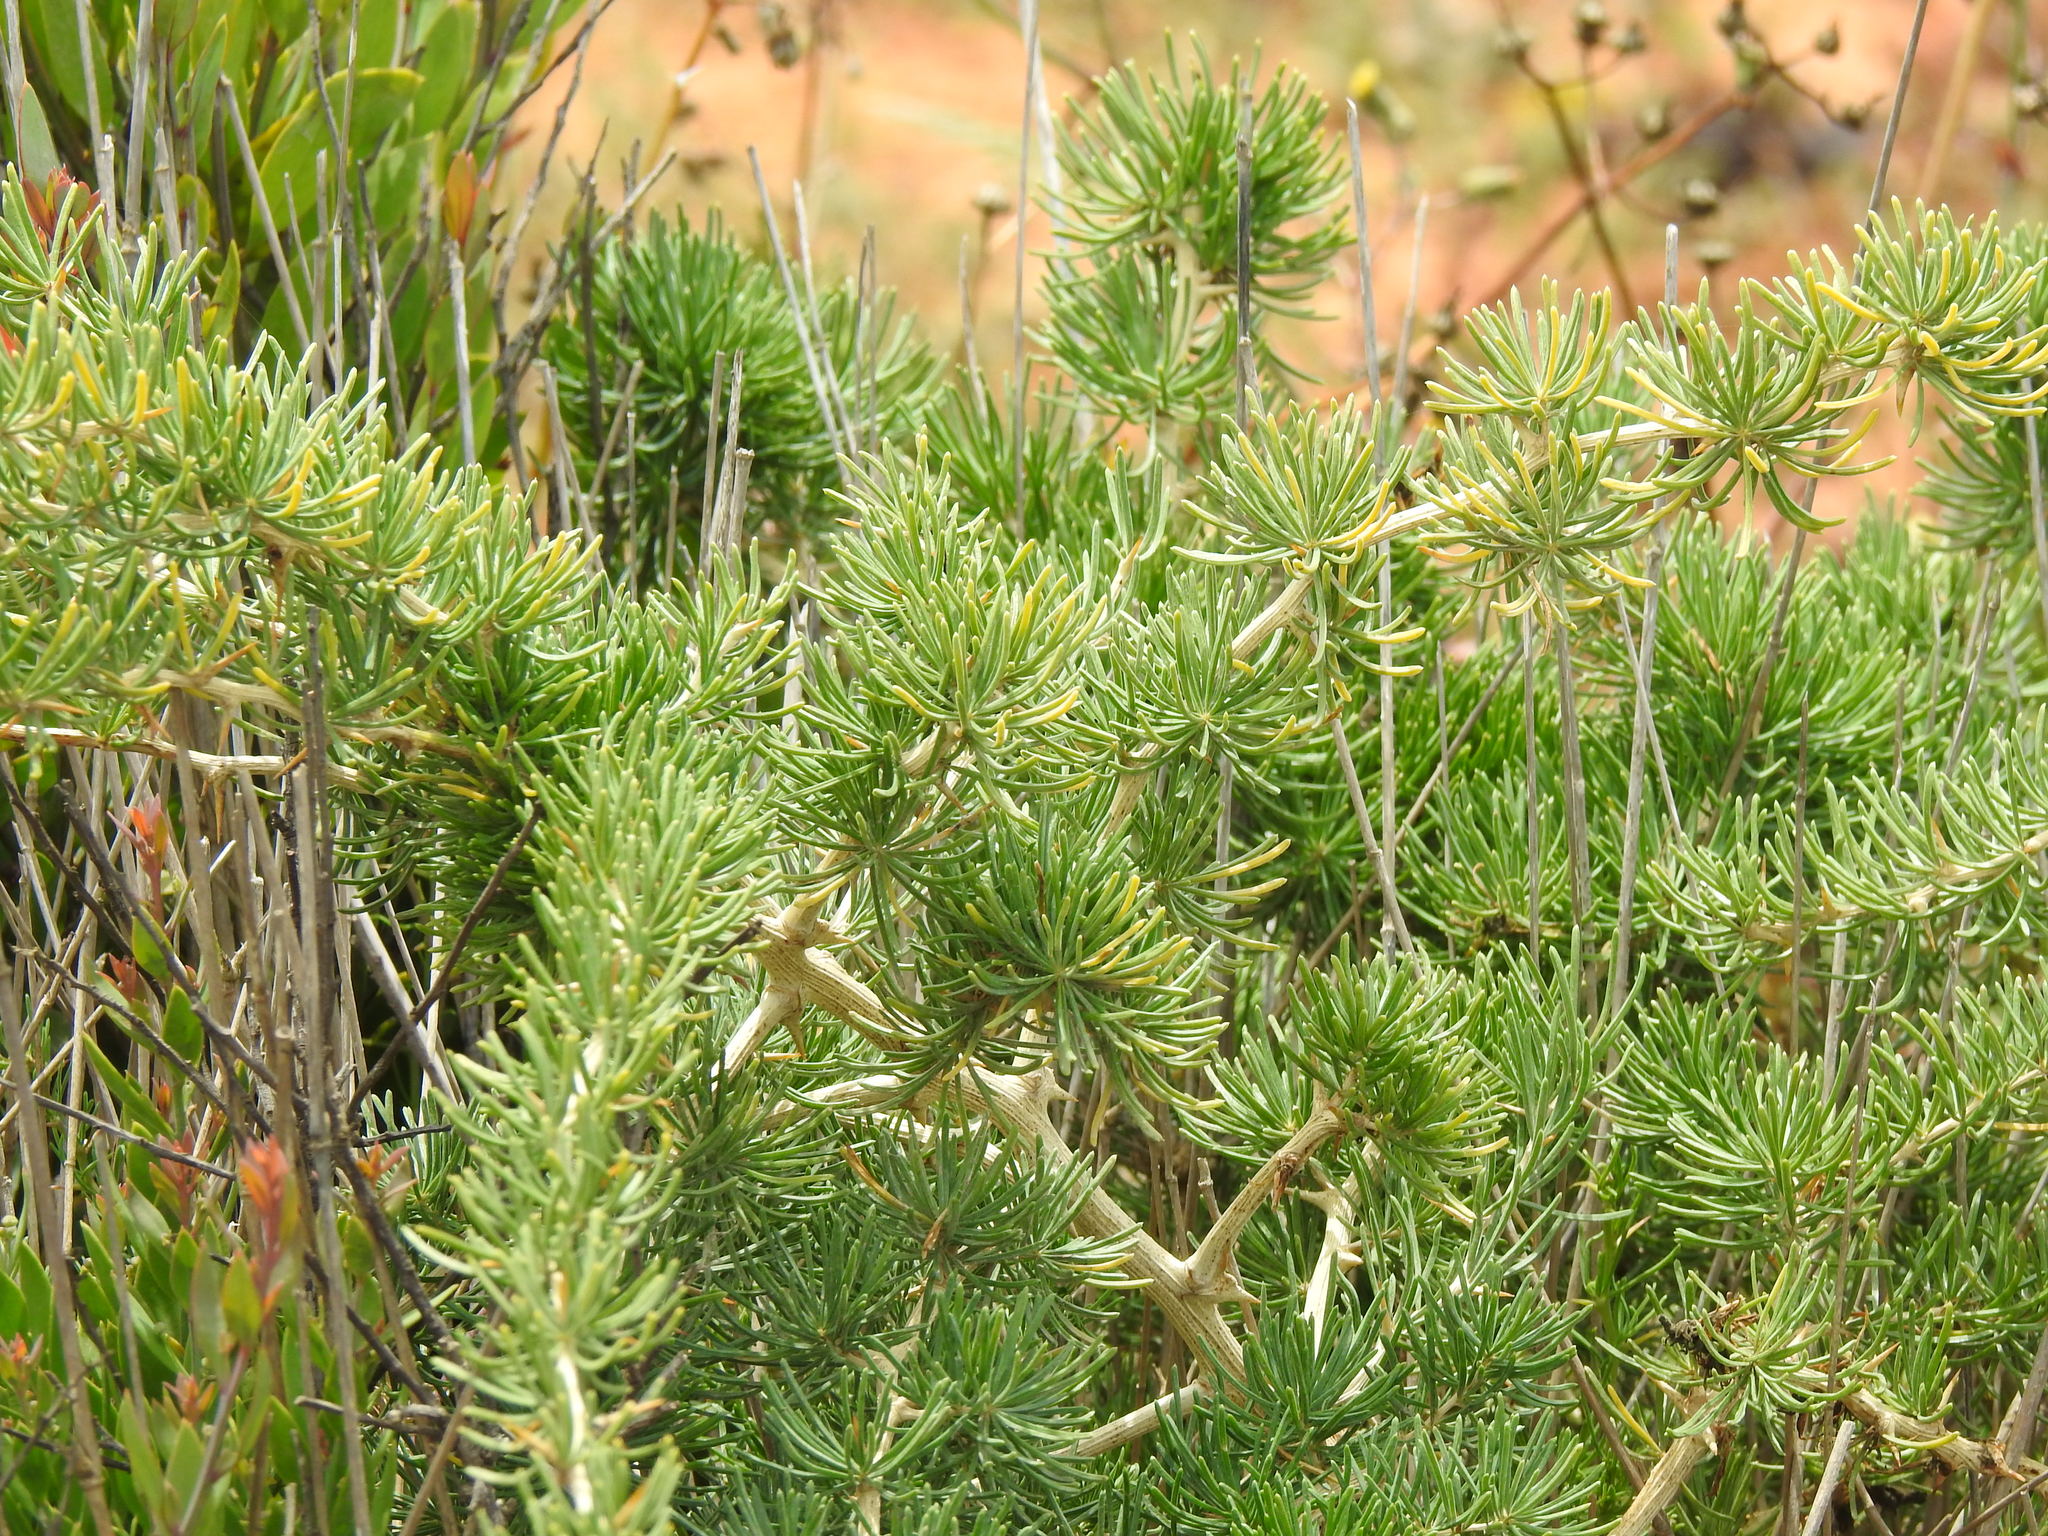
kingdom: Plantae
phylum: Tracheophyta
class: Liliopsida
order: Asparagales
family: Asparagaceae
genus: Asparagus
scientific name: Asparagus albus
